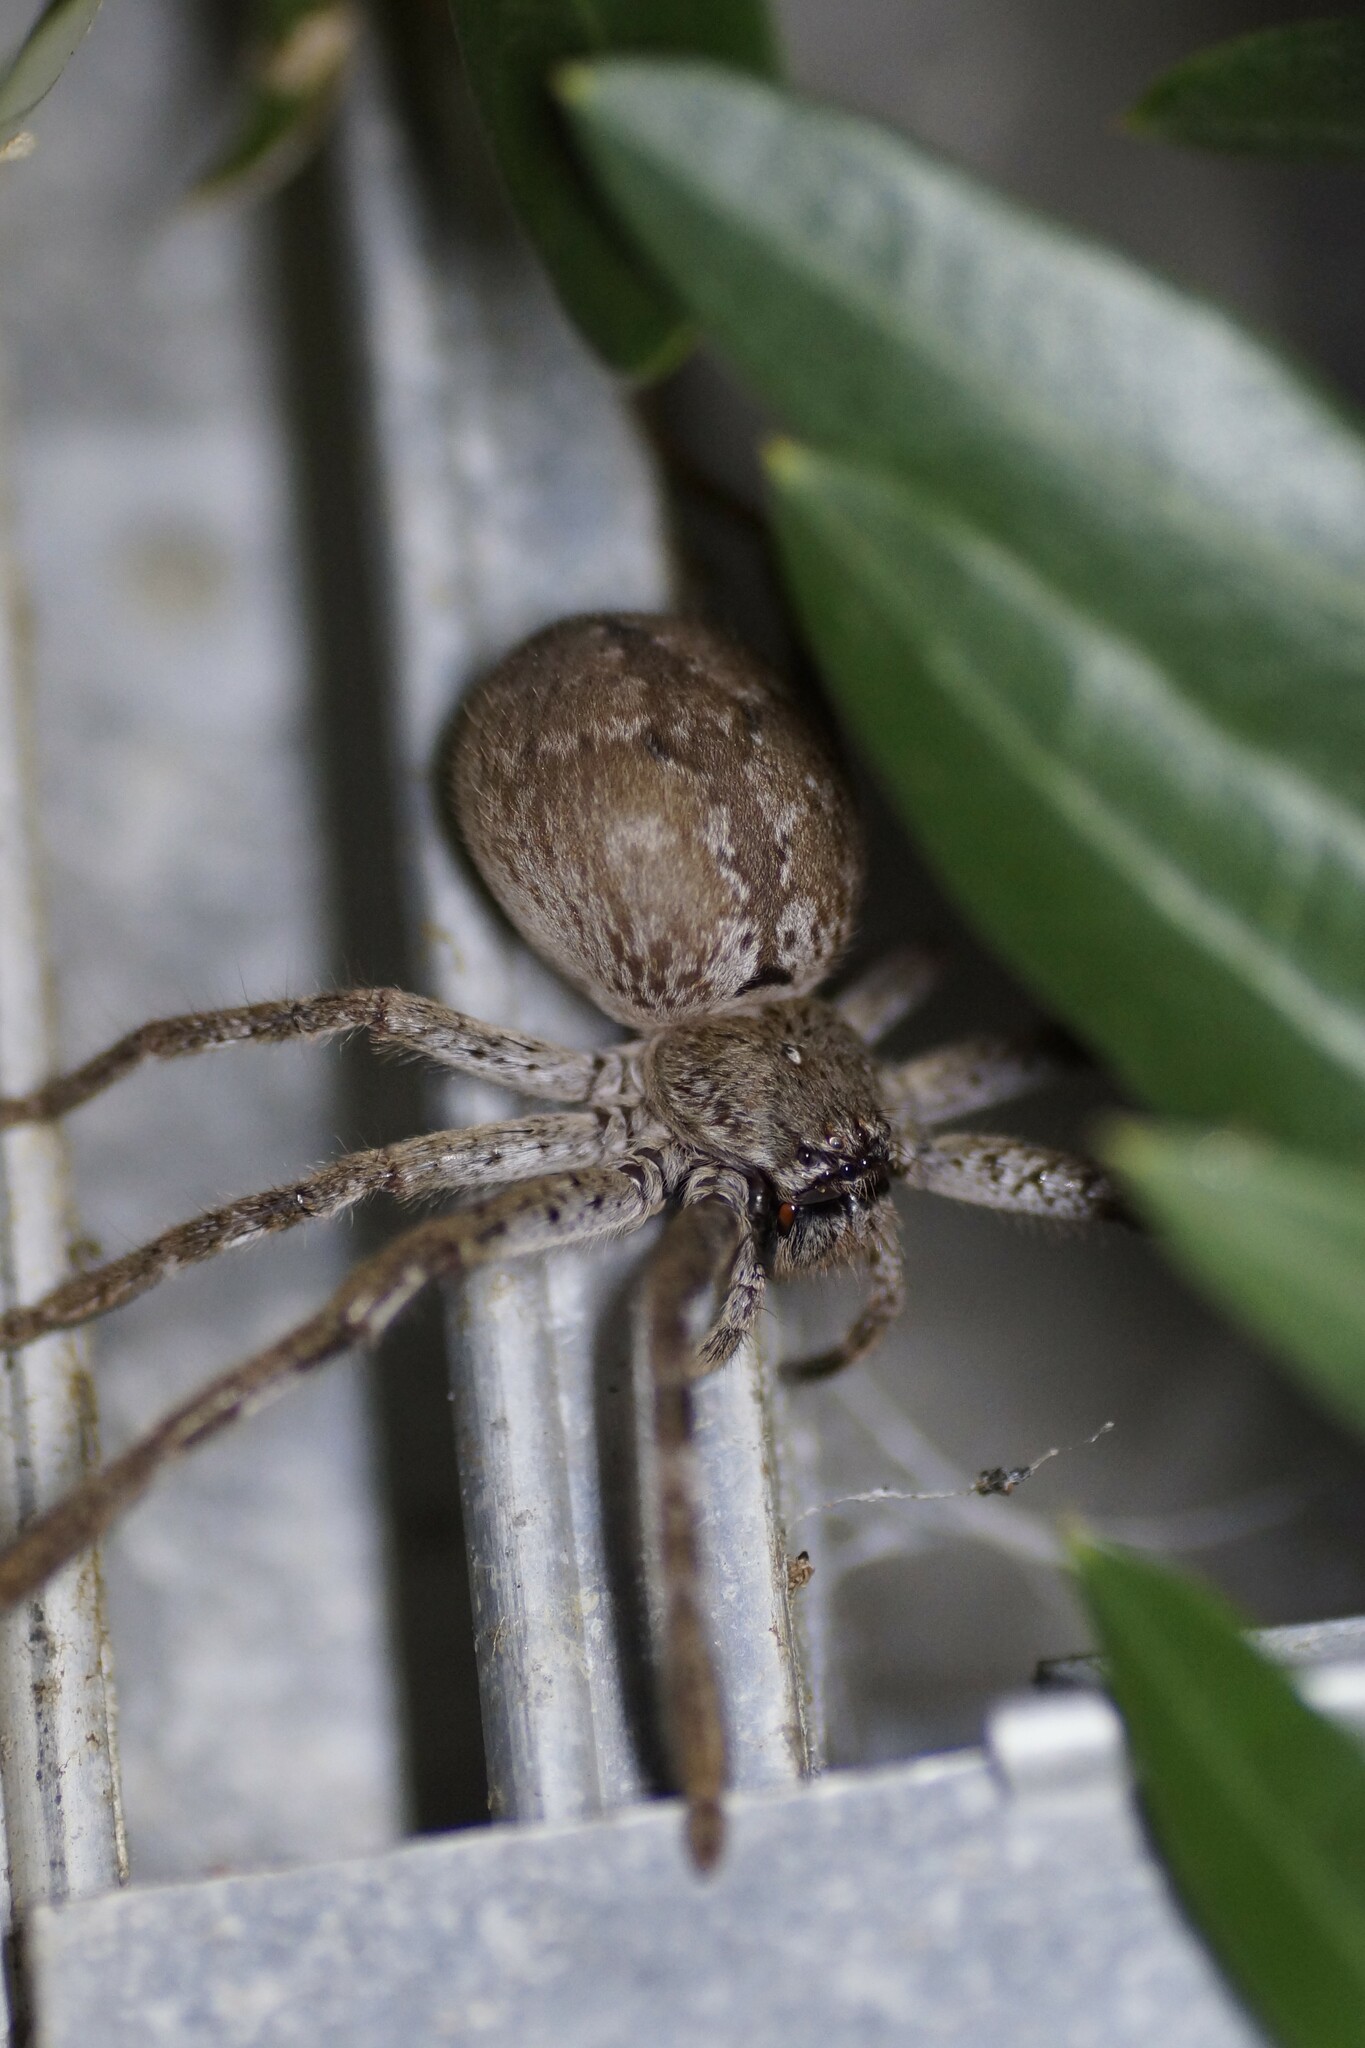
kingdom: Animalia
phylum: Arthropoda
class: Arachnida
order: Araneae
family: Sparassidae
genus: Isopedella
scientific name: Isopedella victorialis
